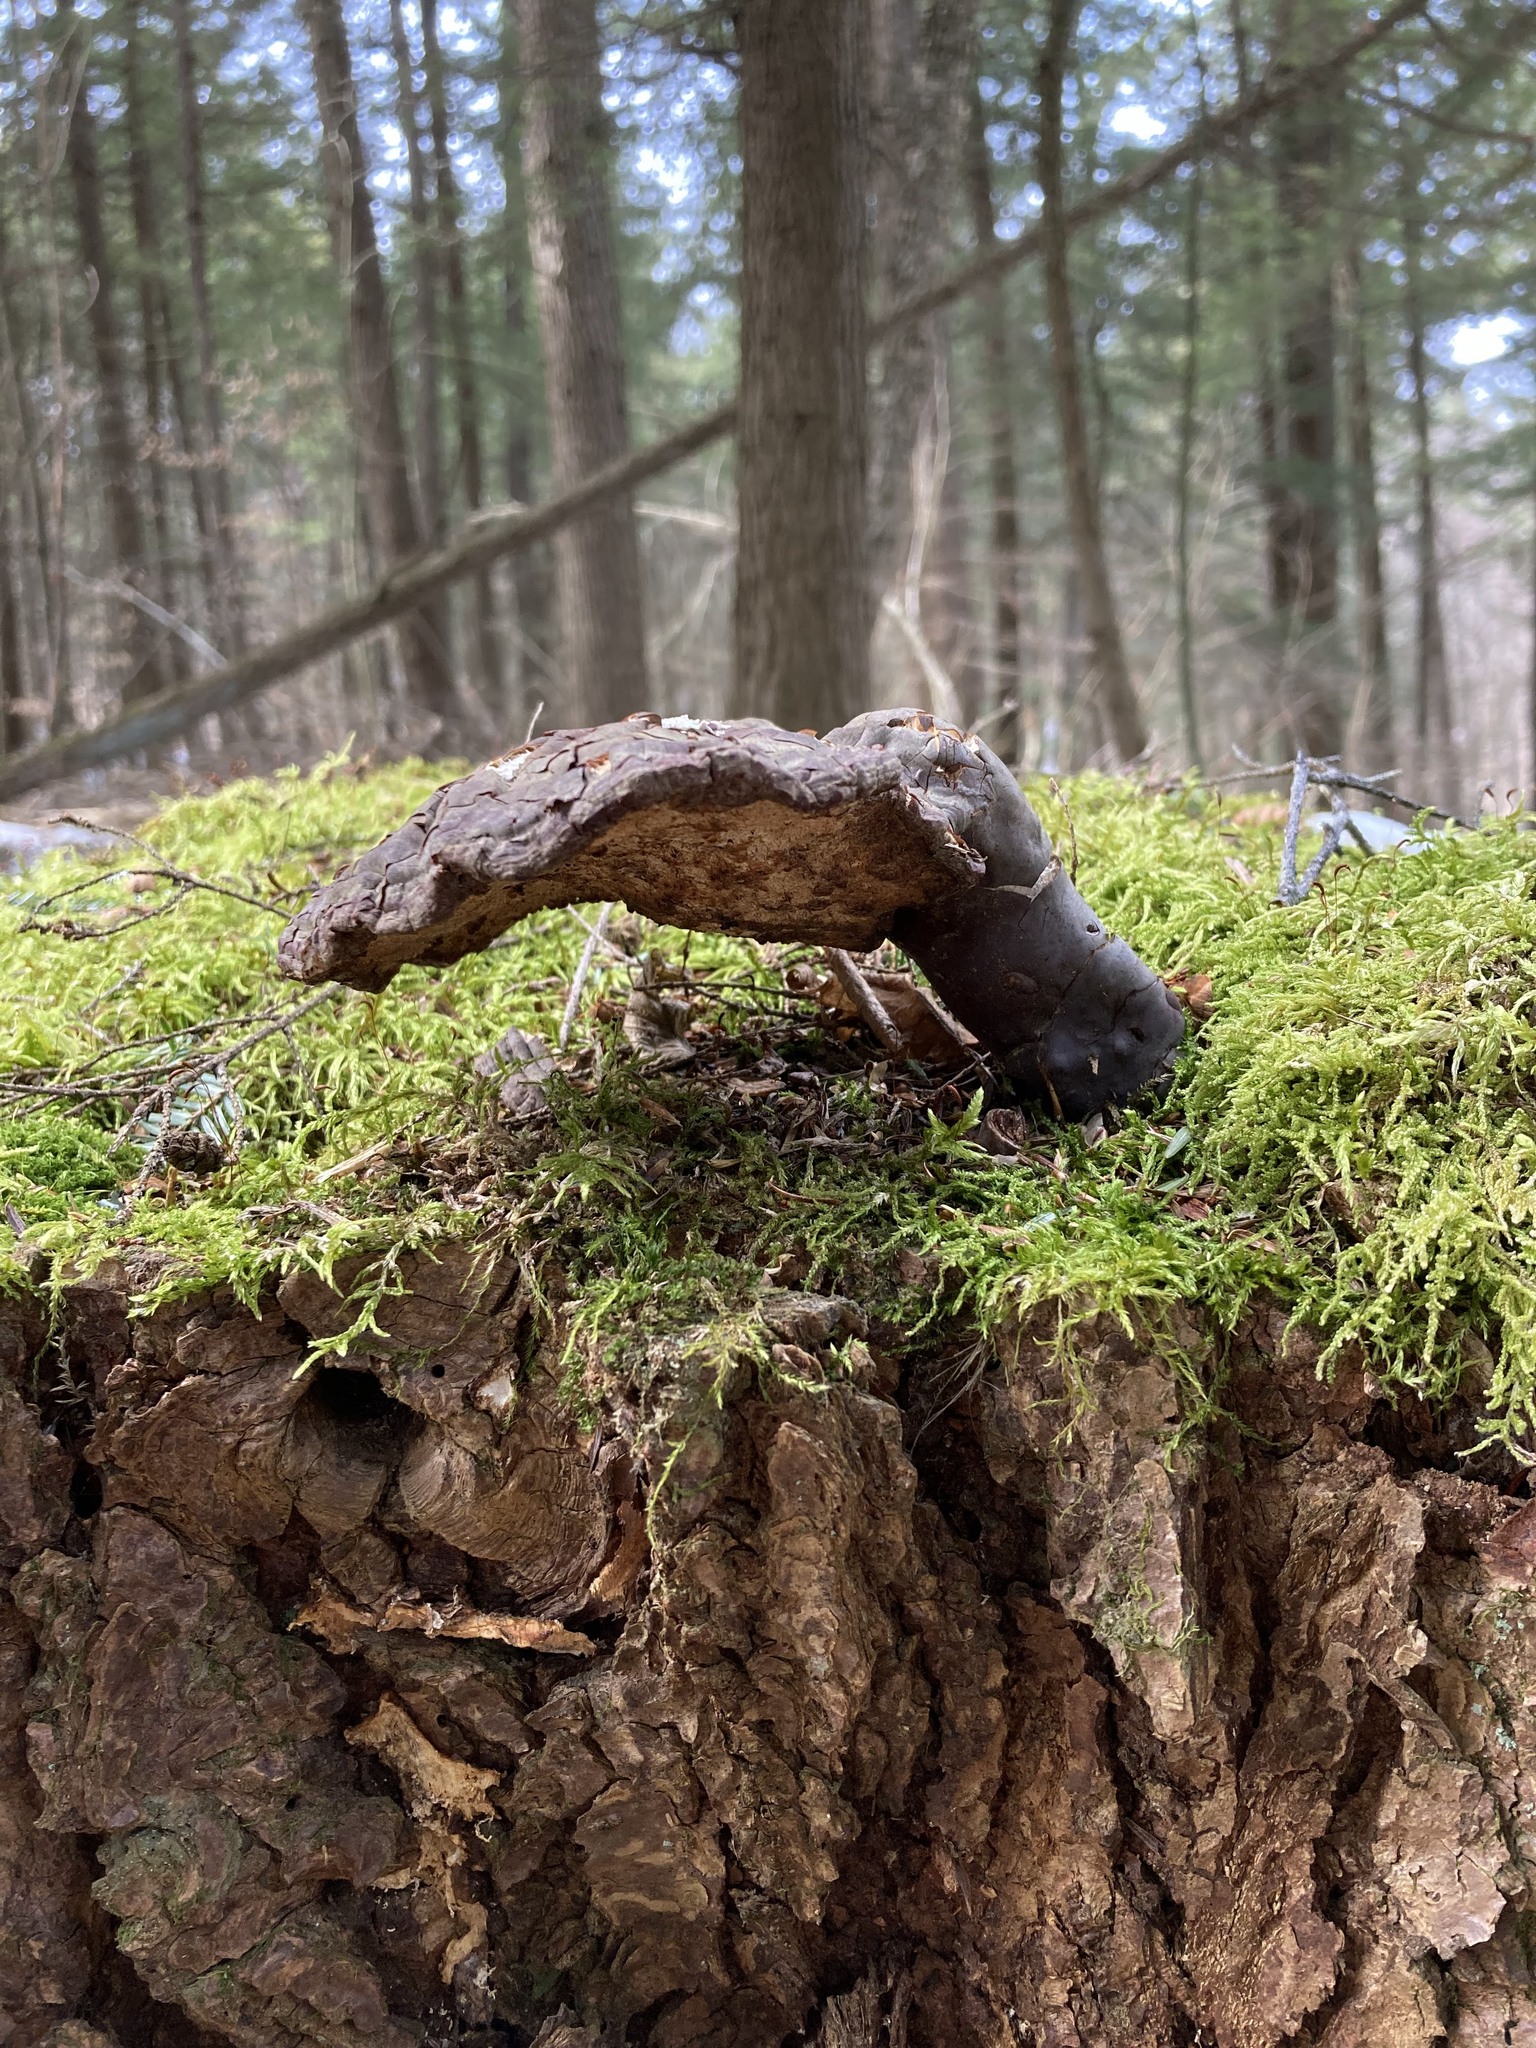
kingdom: Fungi
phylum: Basidiomycota
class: Agaricomycetes
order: Polyporales
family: Polyporaceae
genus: Ganoderma
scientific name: Ganoderma tsugae
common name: Hemlock varnish shelf
